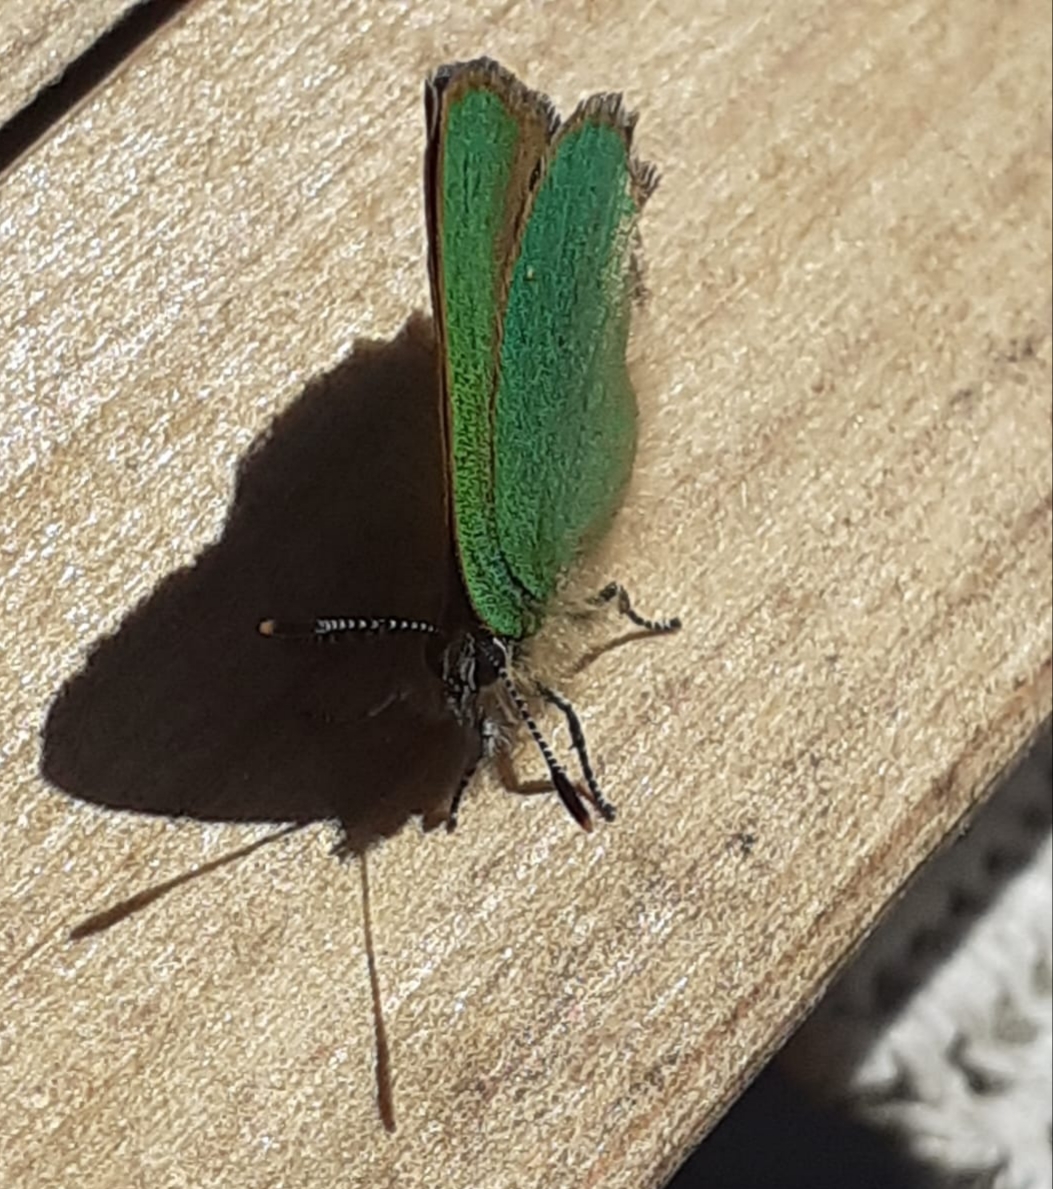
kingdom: Animalia
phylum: Arthropoda
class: Insecta
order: Lepidoptera
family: Lycaenidae
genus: Callophrys
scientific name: Callophrys rubi
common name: Green hairstreak
